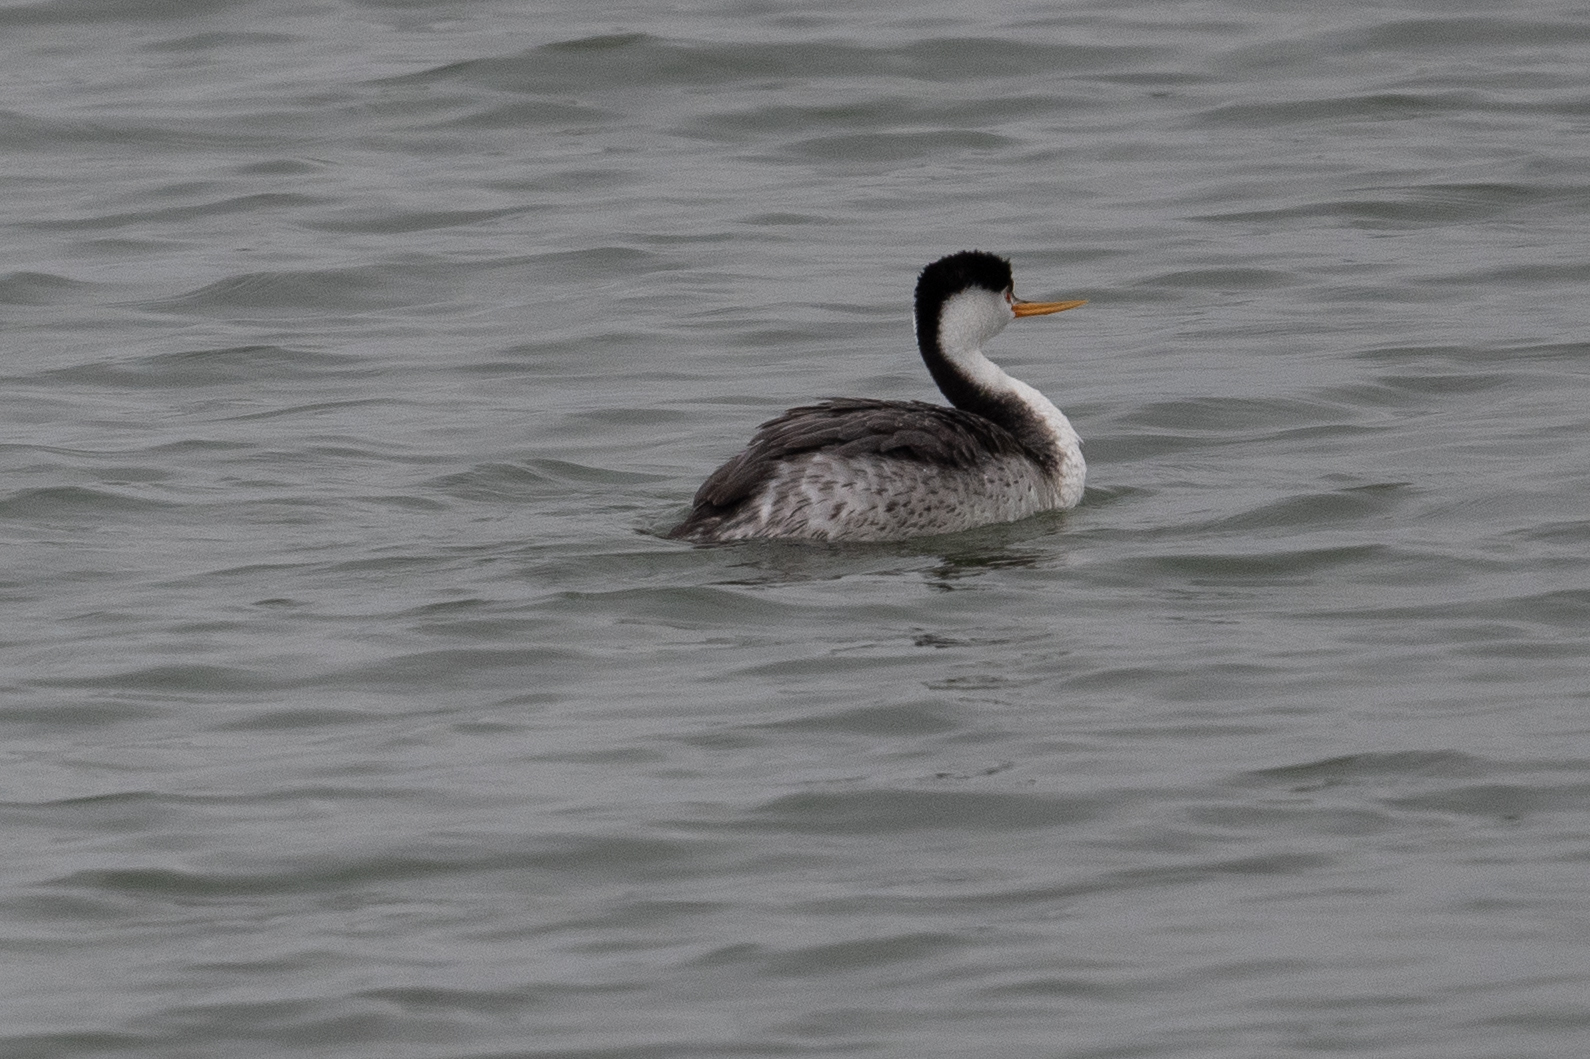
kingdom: Animalia
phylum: Chordata
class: Aves
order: Podicipediformes
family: Podicipedidae
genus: Aechmophorus
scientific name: Aechmophorus clarkii
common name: Clark's grebe
